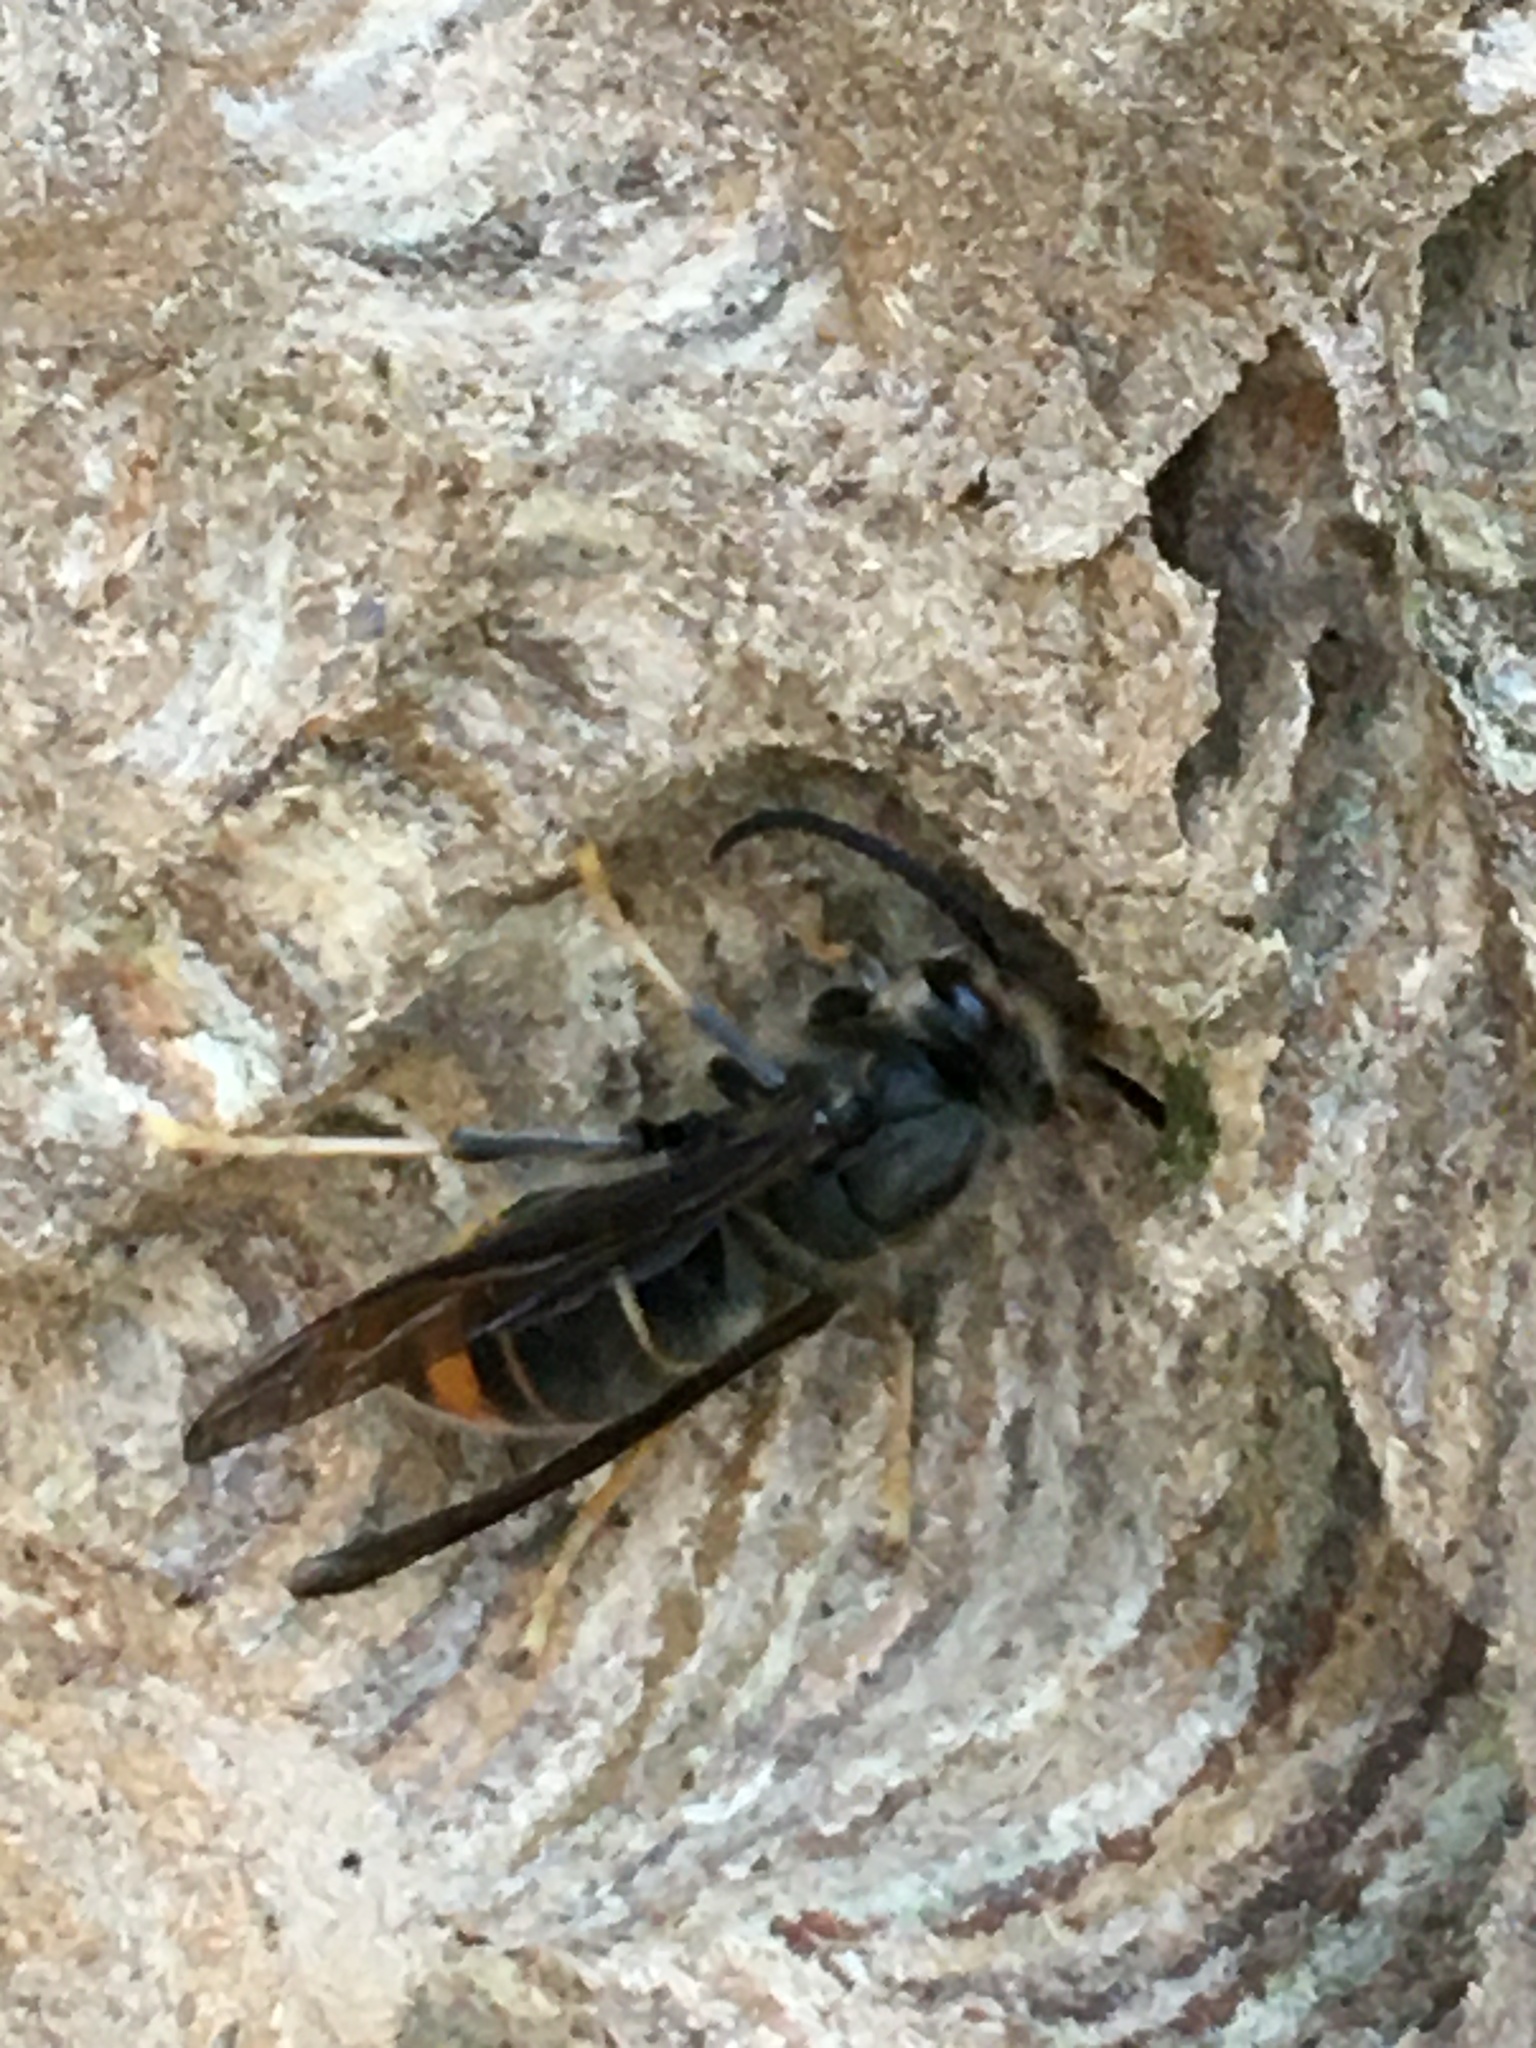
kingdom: Animalia
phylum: Arthropoda
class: Insecta
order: Hymenoptera
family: Vespidae
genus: Vespa
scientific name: Vespa velutina
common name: Asian hornet
